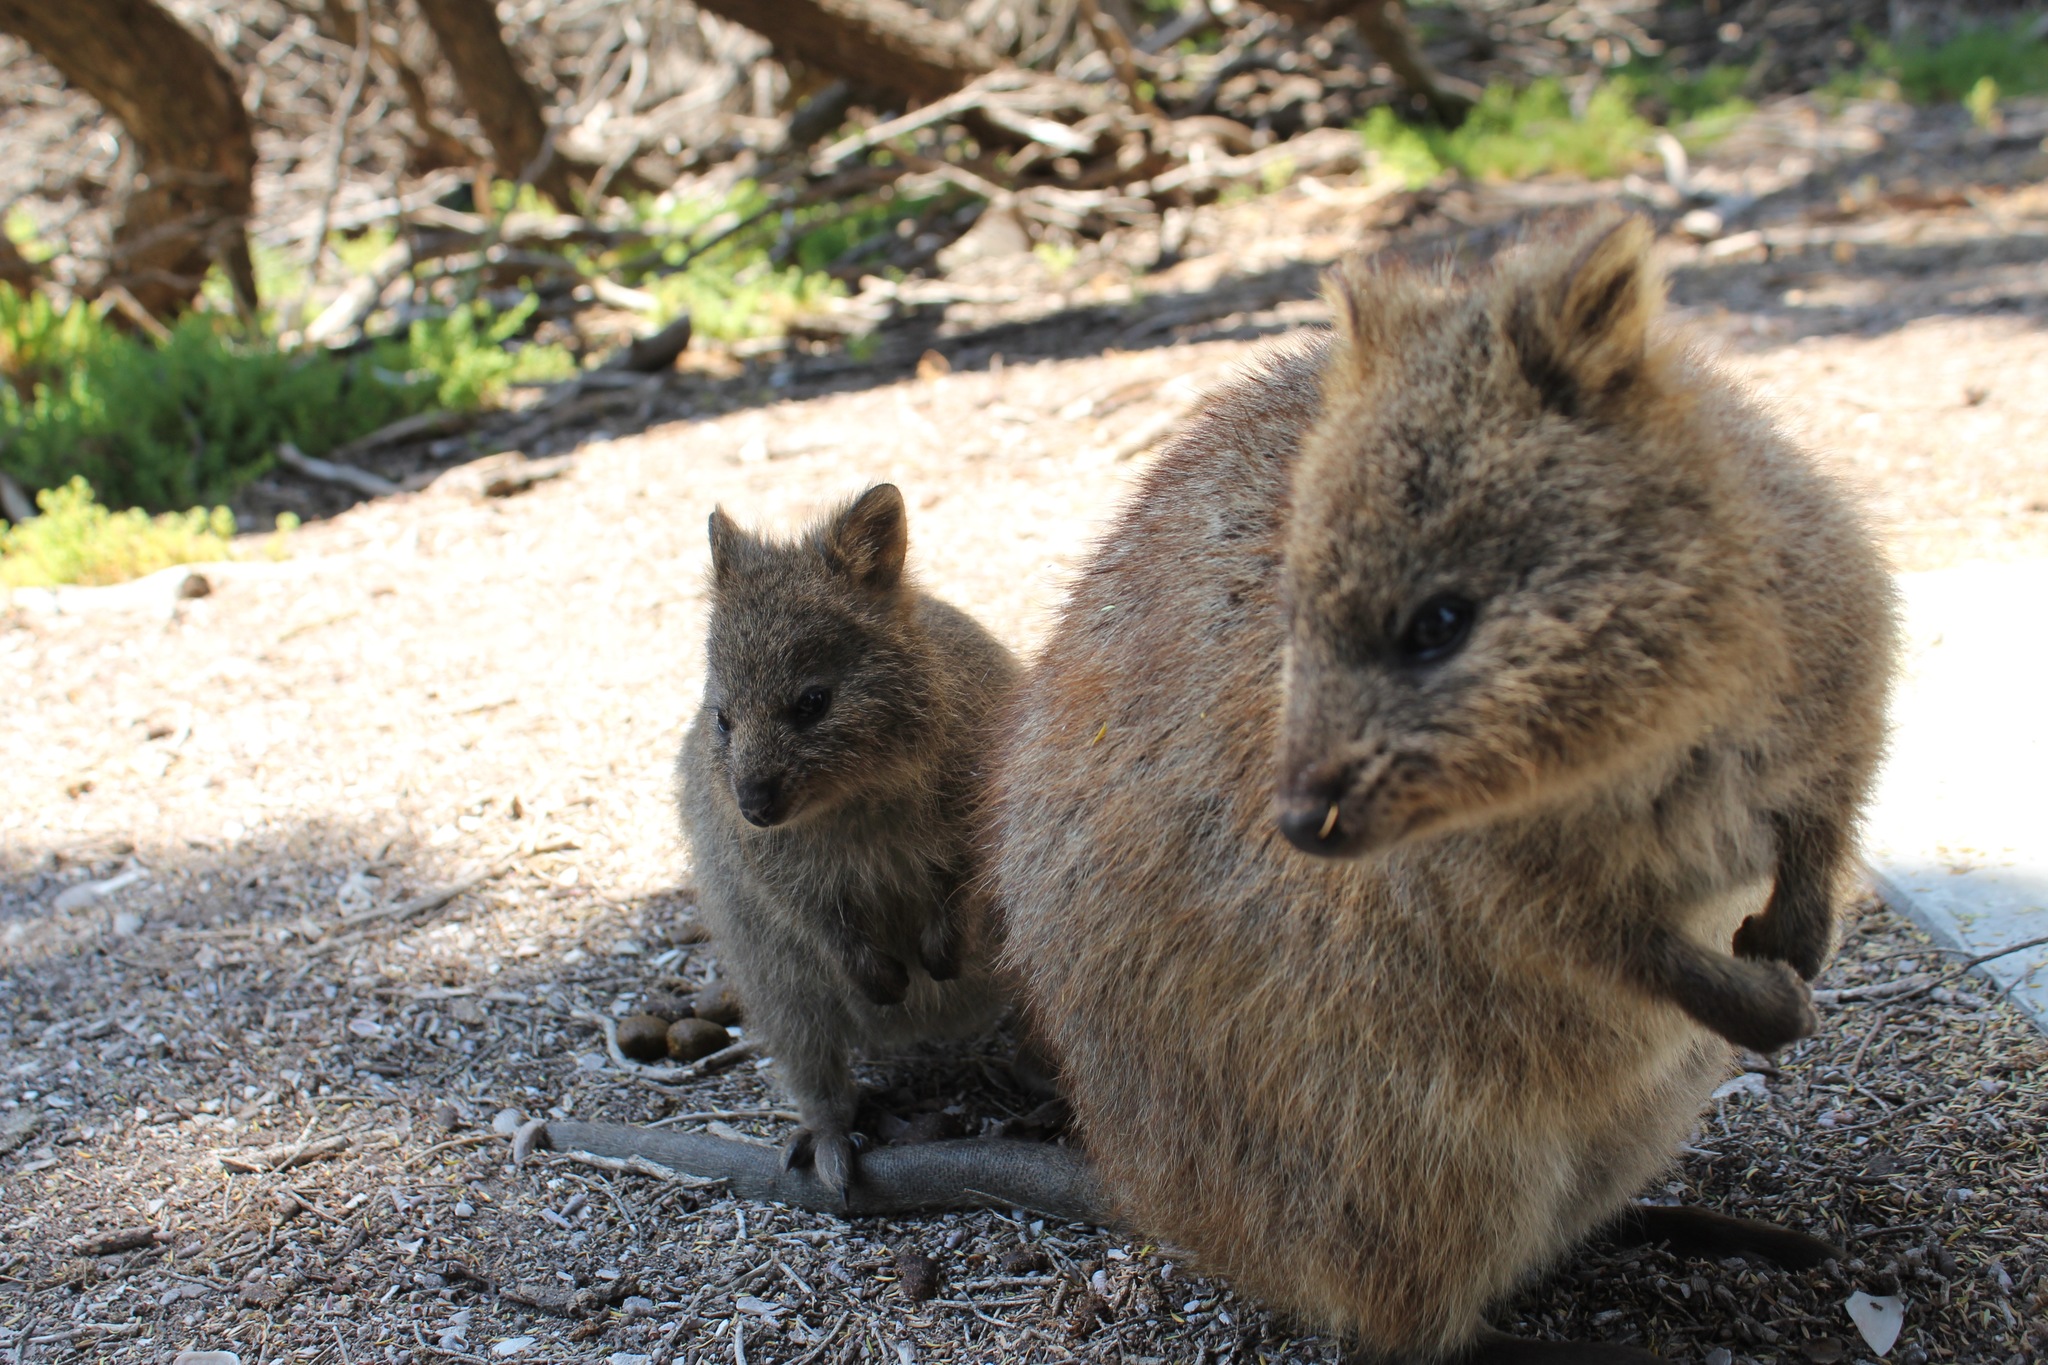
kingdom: Animalia
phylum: Chordata
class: Mammalia
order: Diprotodontia
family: Macropodidae
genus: Setonix
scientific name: Setonix brachyurus
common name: Quokka
